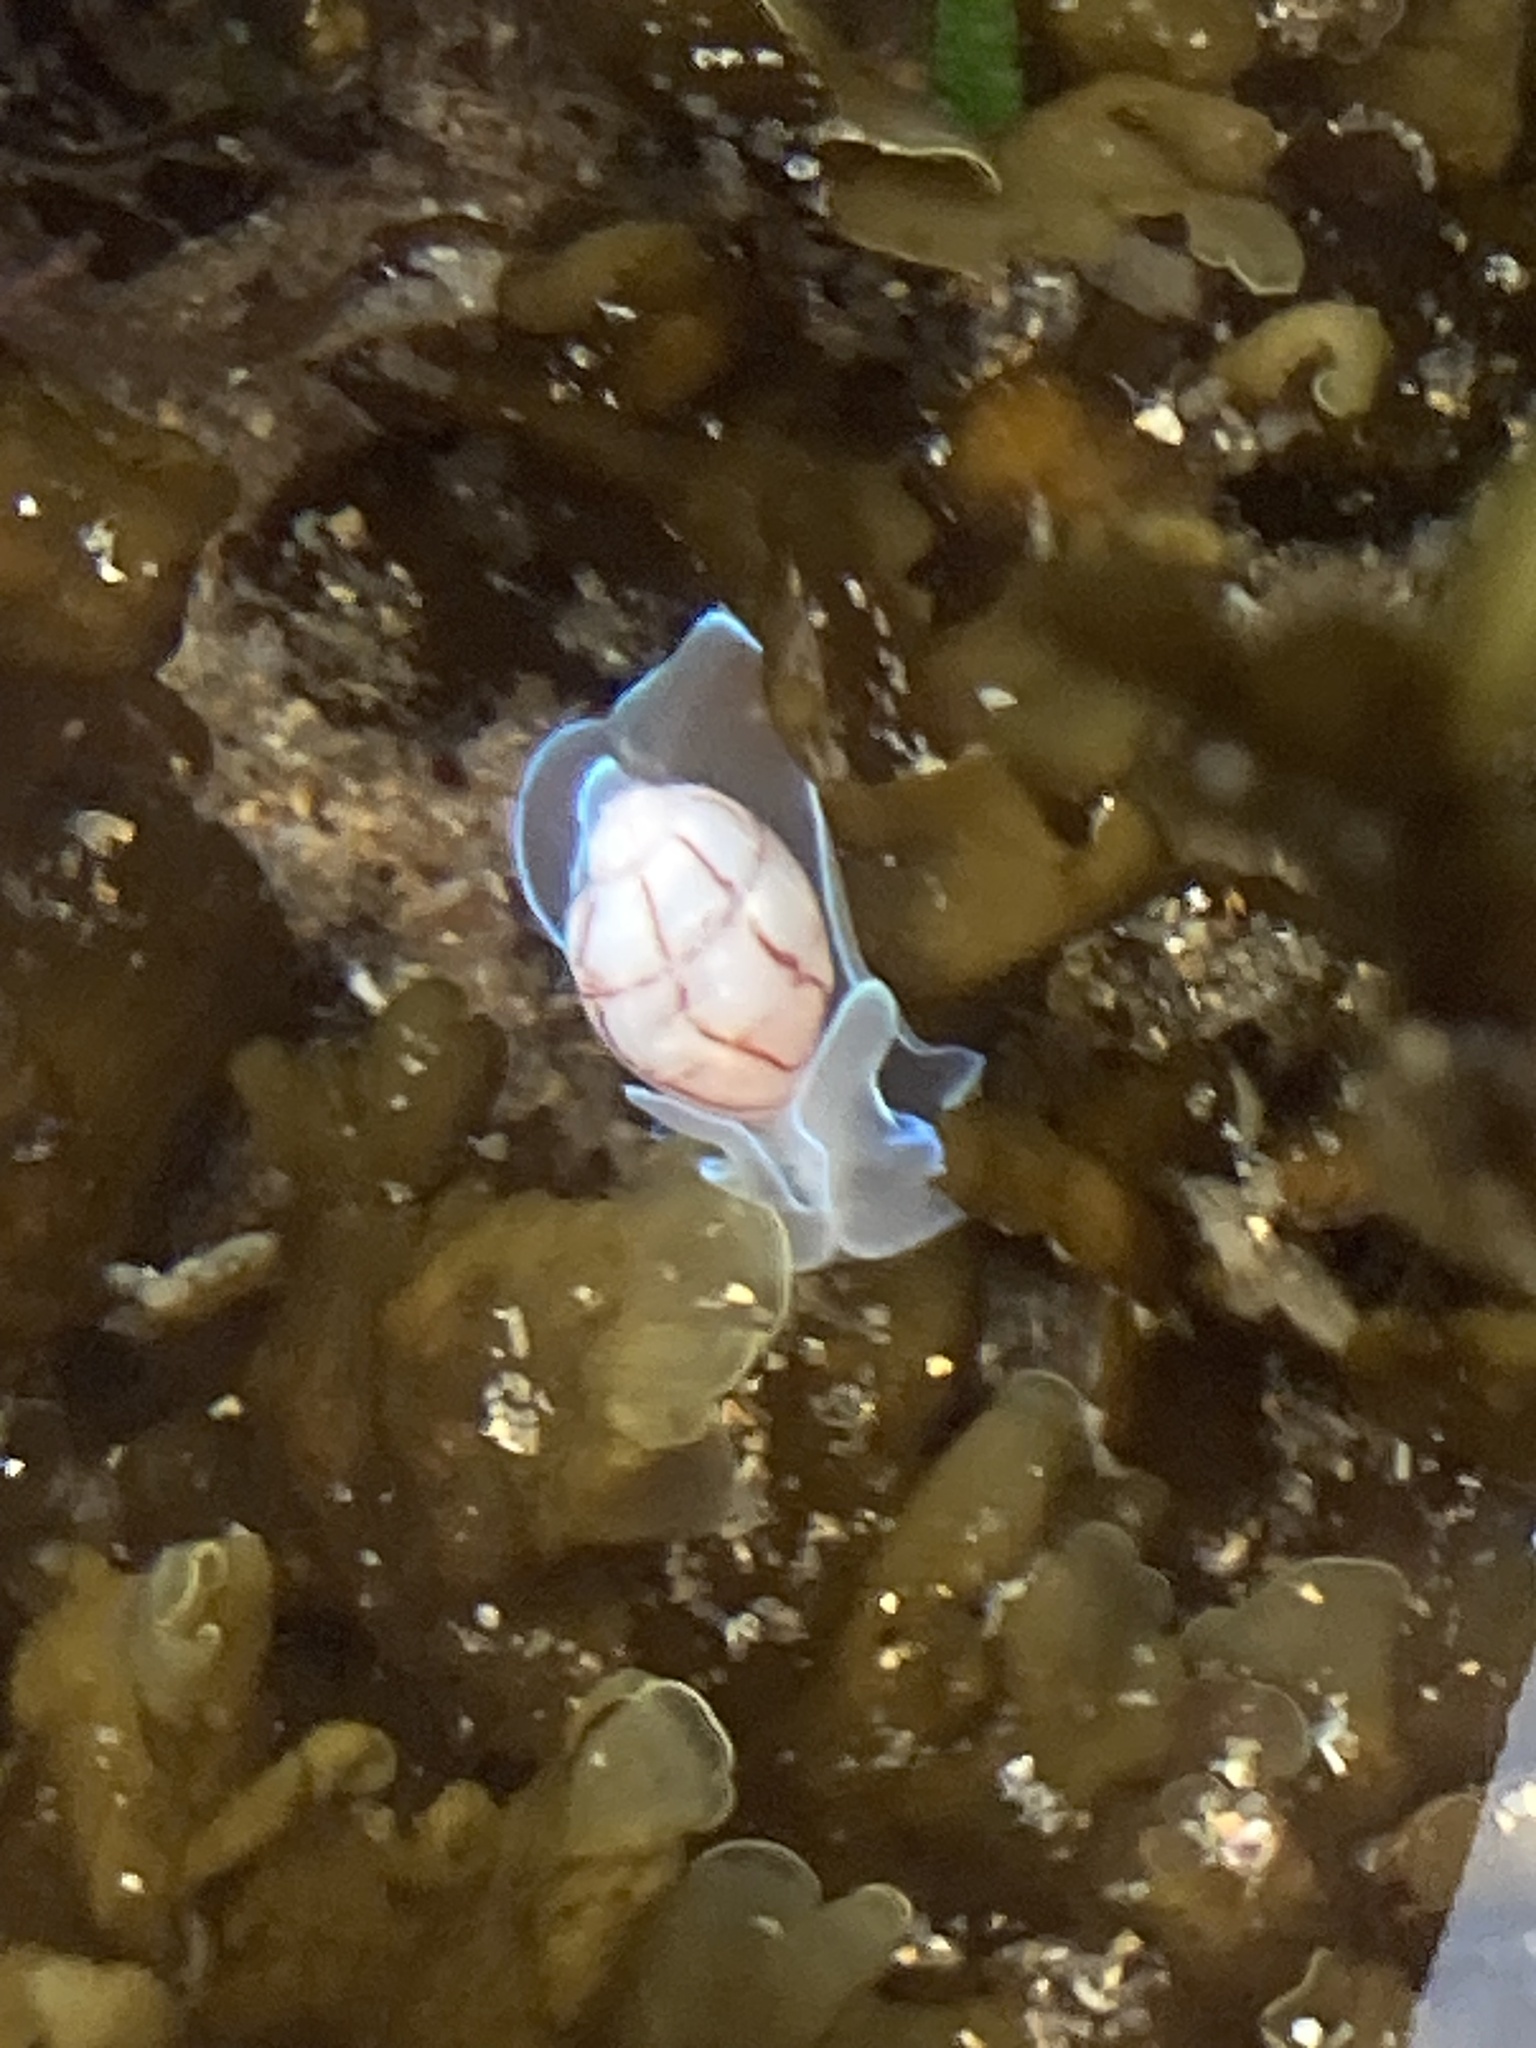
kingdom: Animalia
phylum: Mollusca
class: Gastropoda
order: Cephalaspidea
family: Aplustridae
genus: Bullina
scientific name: Bullina lineata
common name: Lined bubble snail
